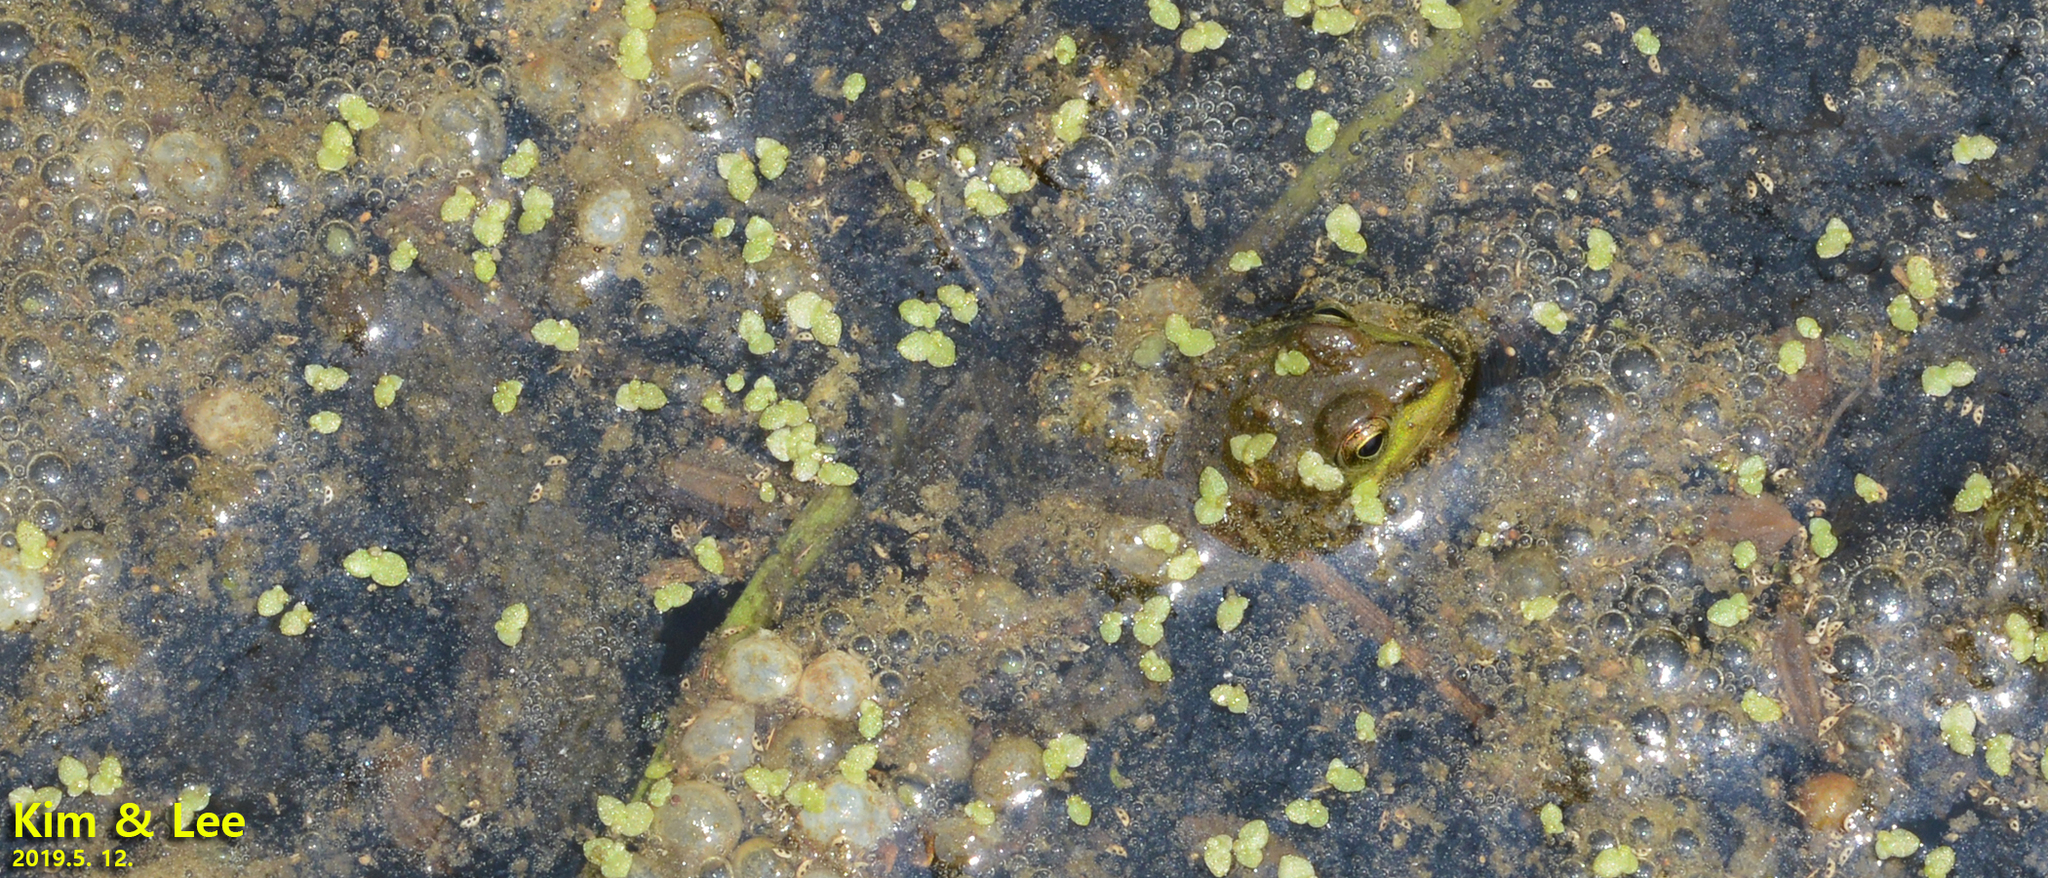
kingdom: Animalia
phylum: Chordata
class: Amphibia
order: Anura
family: Ranidae
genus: Pelophylax
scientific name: Pelophylax chosenicus
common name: Gold-spotted pond frog
